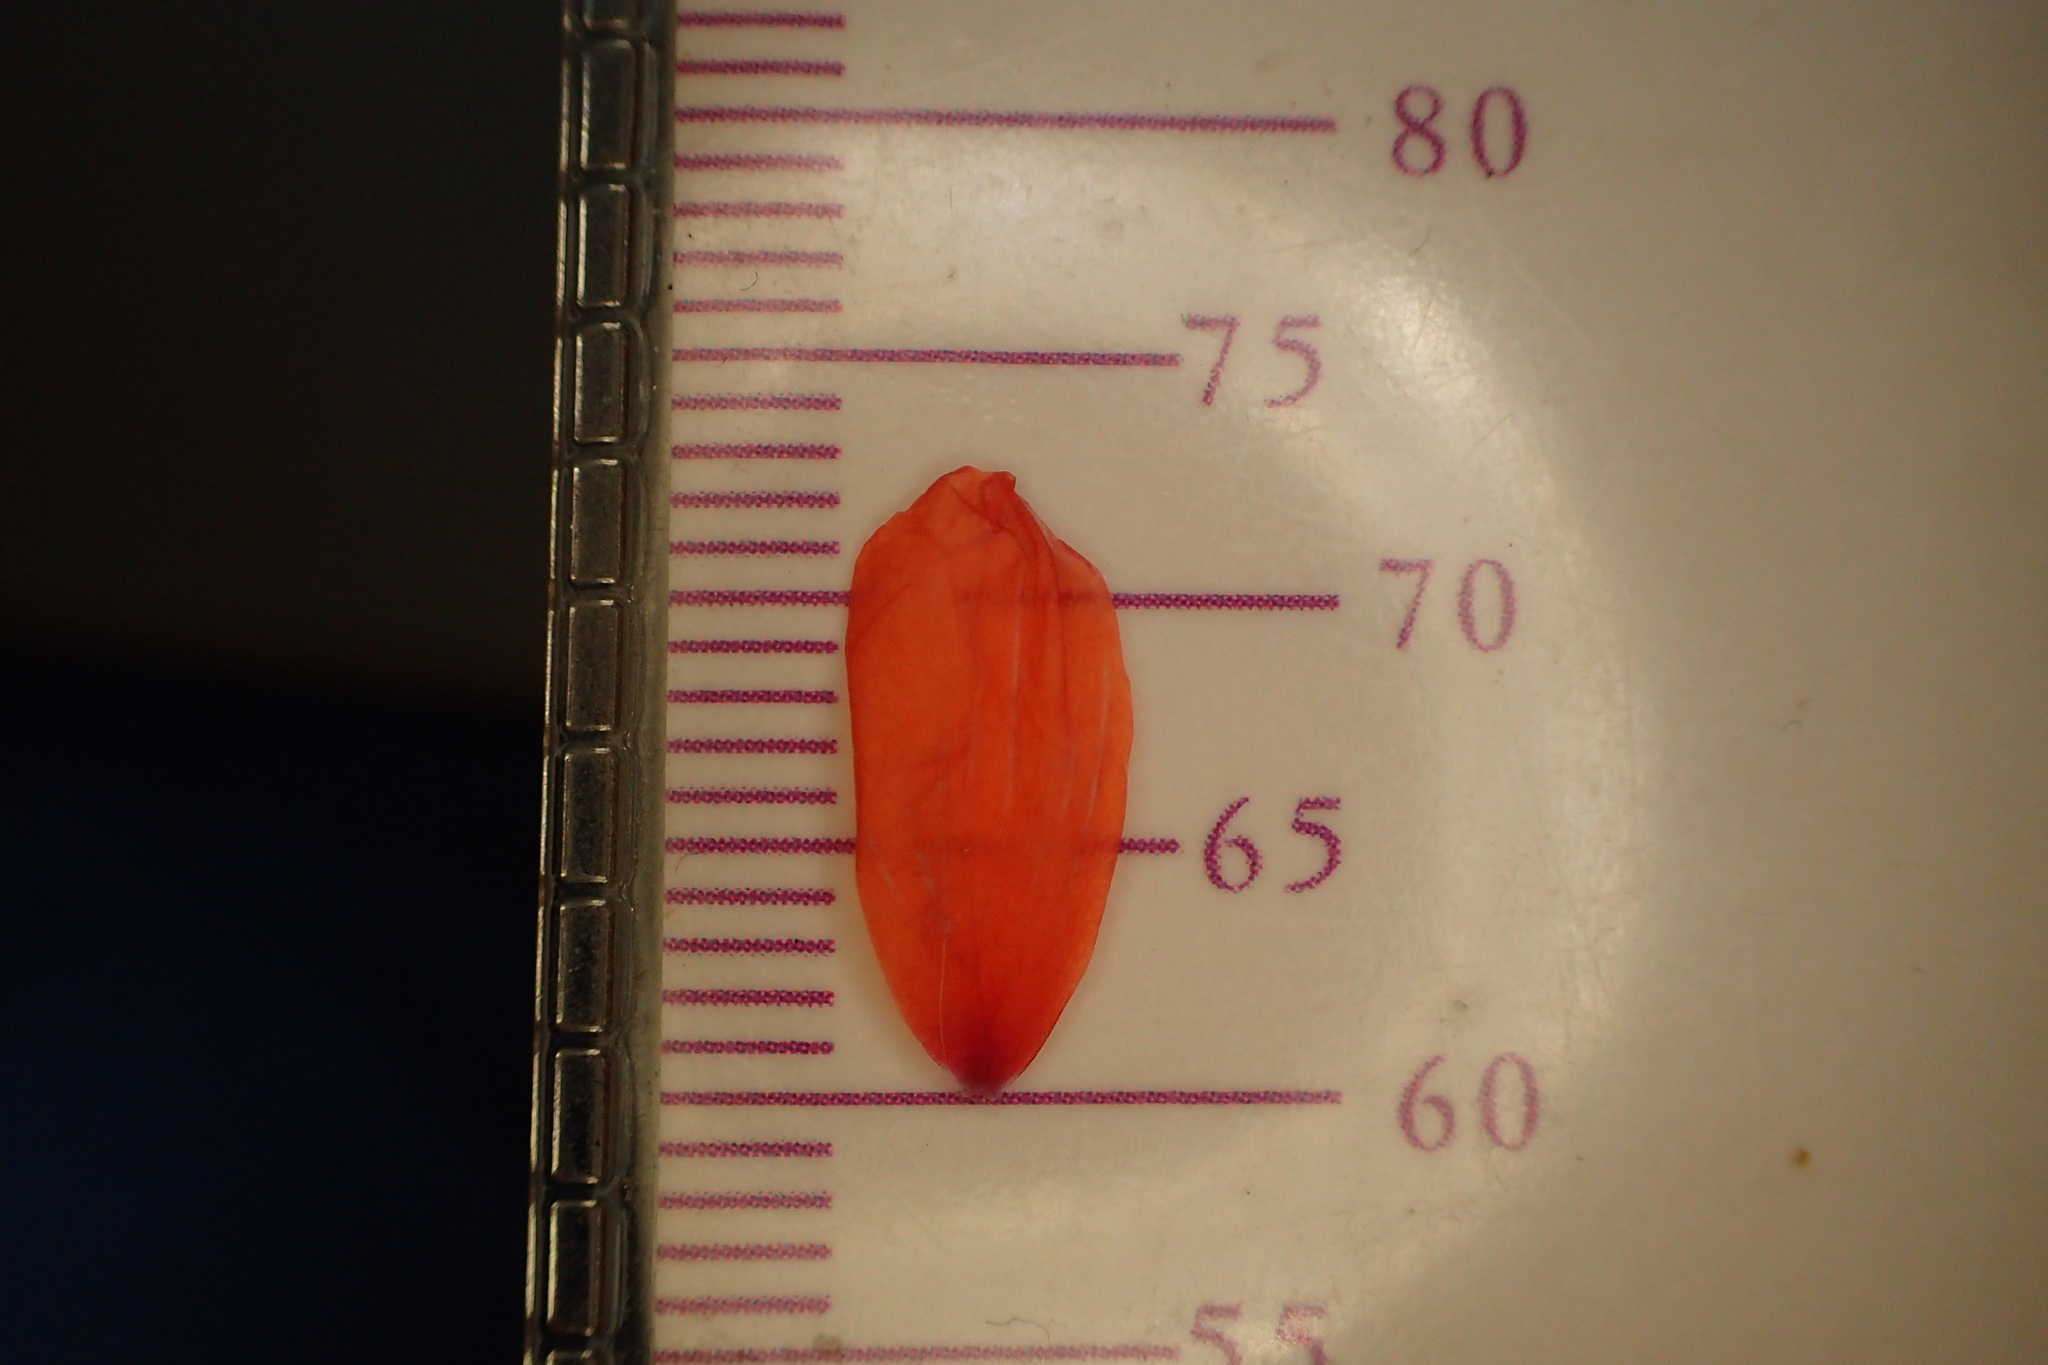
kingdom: Plantae
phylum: Tracheophyta
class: Magnoliopsida
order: Ranunculales
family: Papaveraceae
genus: Papaver
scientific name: Papaver dubium
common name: Long-headed poppy
